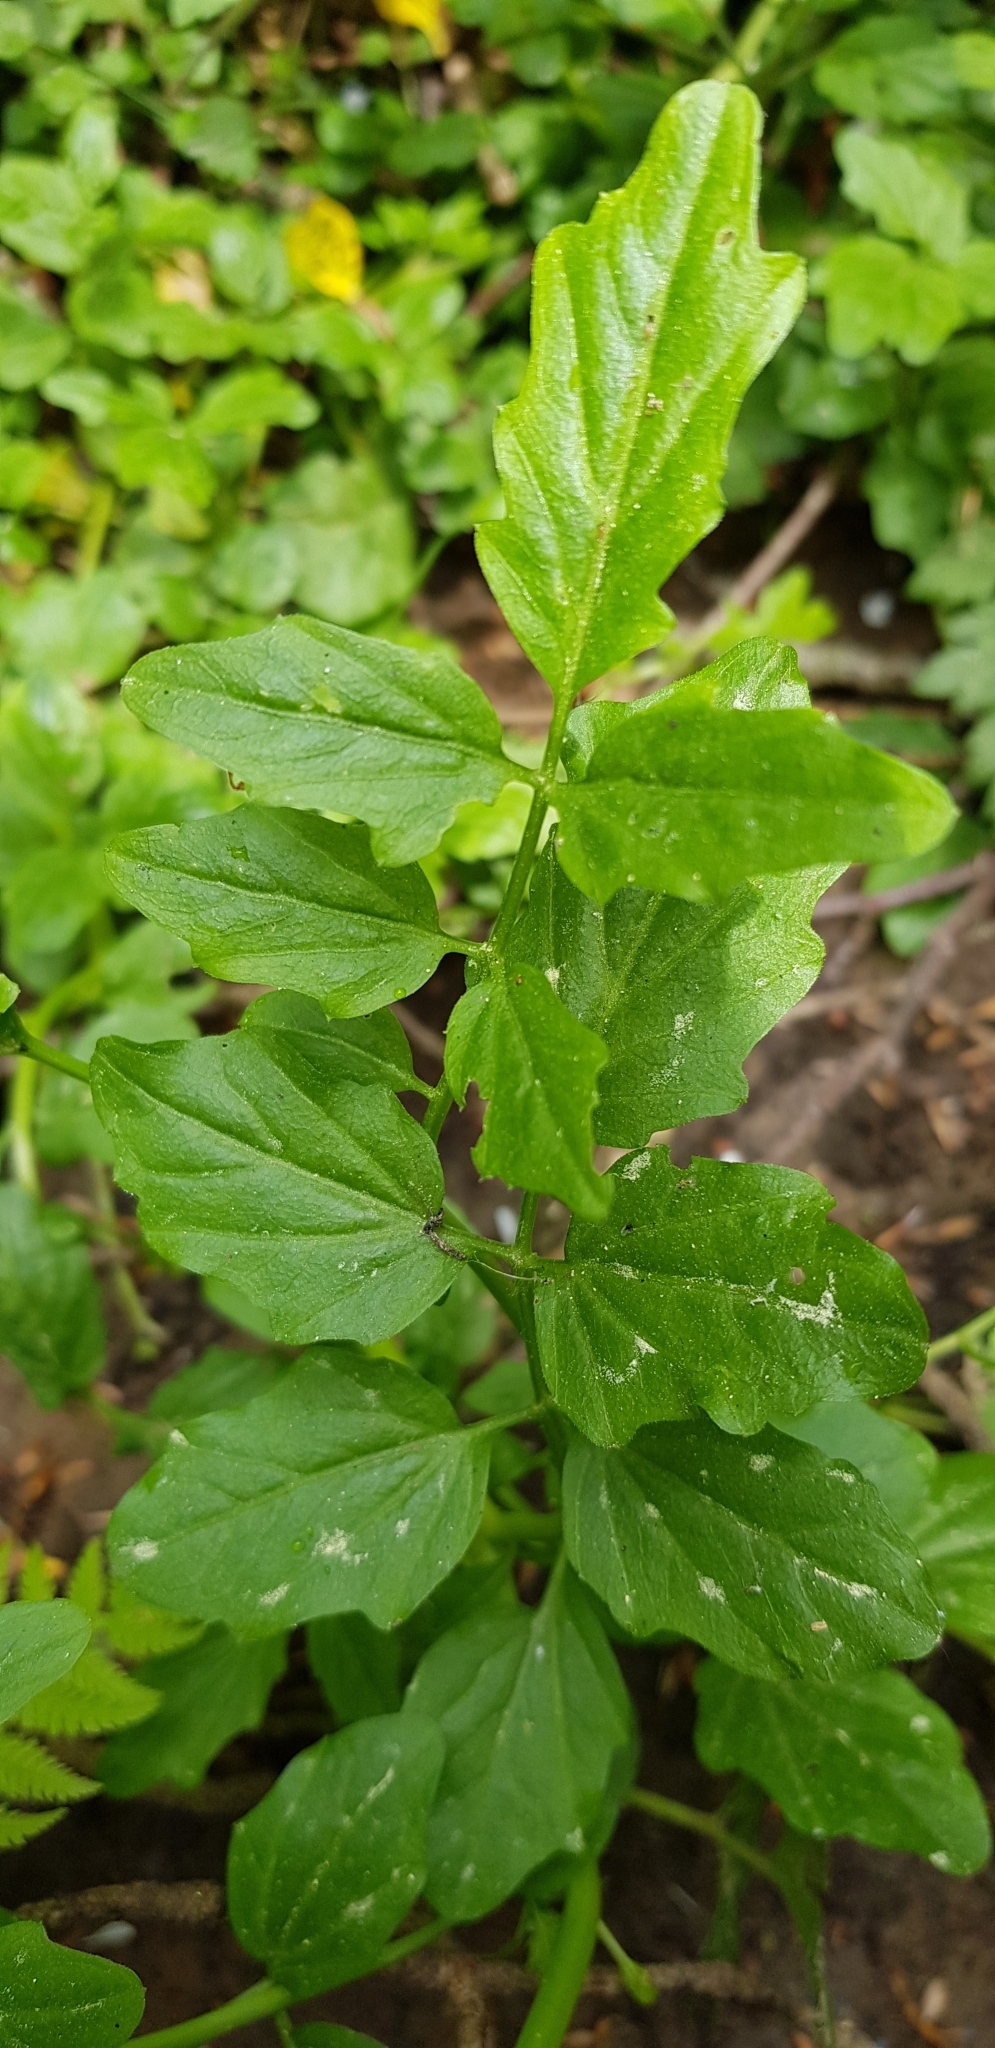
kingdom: Plantae
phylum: Tracheophyta
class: Magnoliopsida
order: Brassicales
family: Brassicaceae
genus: Cardamine
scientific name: Cardamine amara
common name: Large bitter-cress
